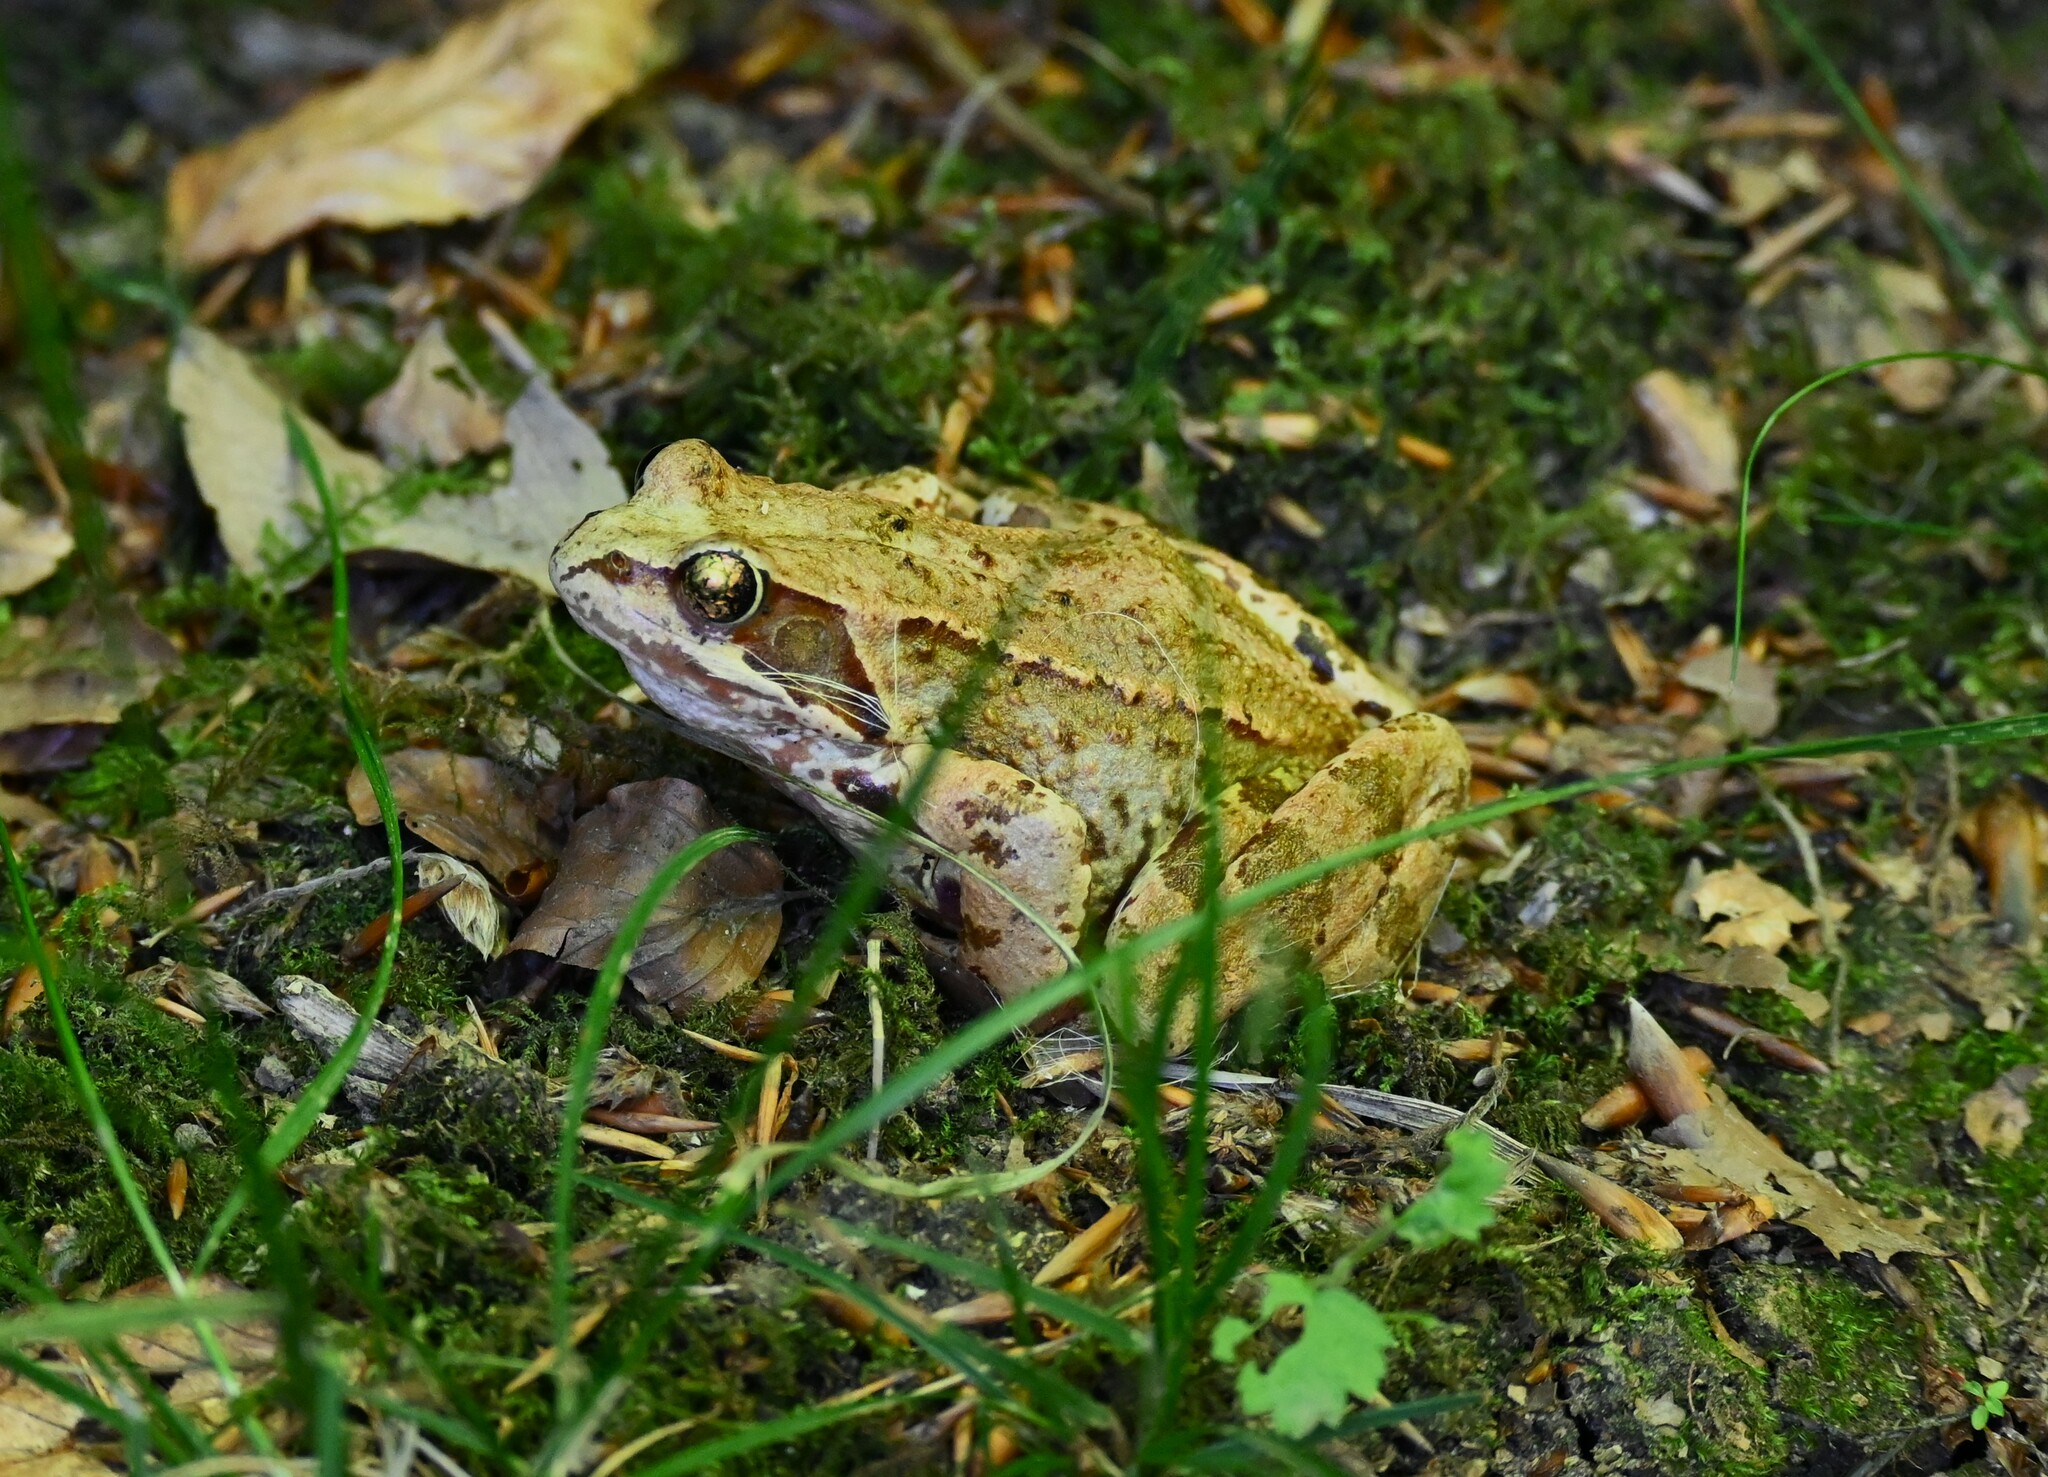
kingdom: Animalia
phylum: Chordata
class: Amphibia
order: Anura
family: Ranidae
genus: Rana
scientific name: Rana temporaria
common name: Common frog
